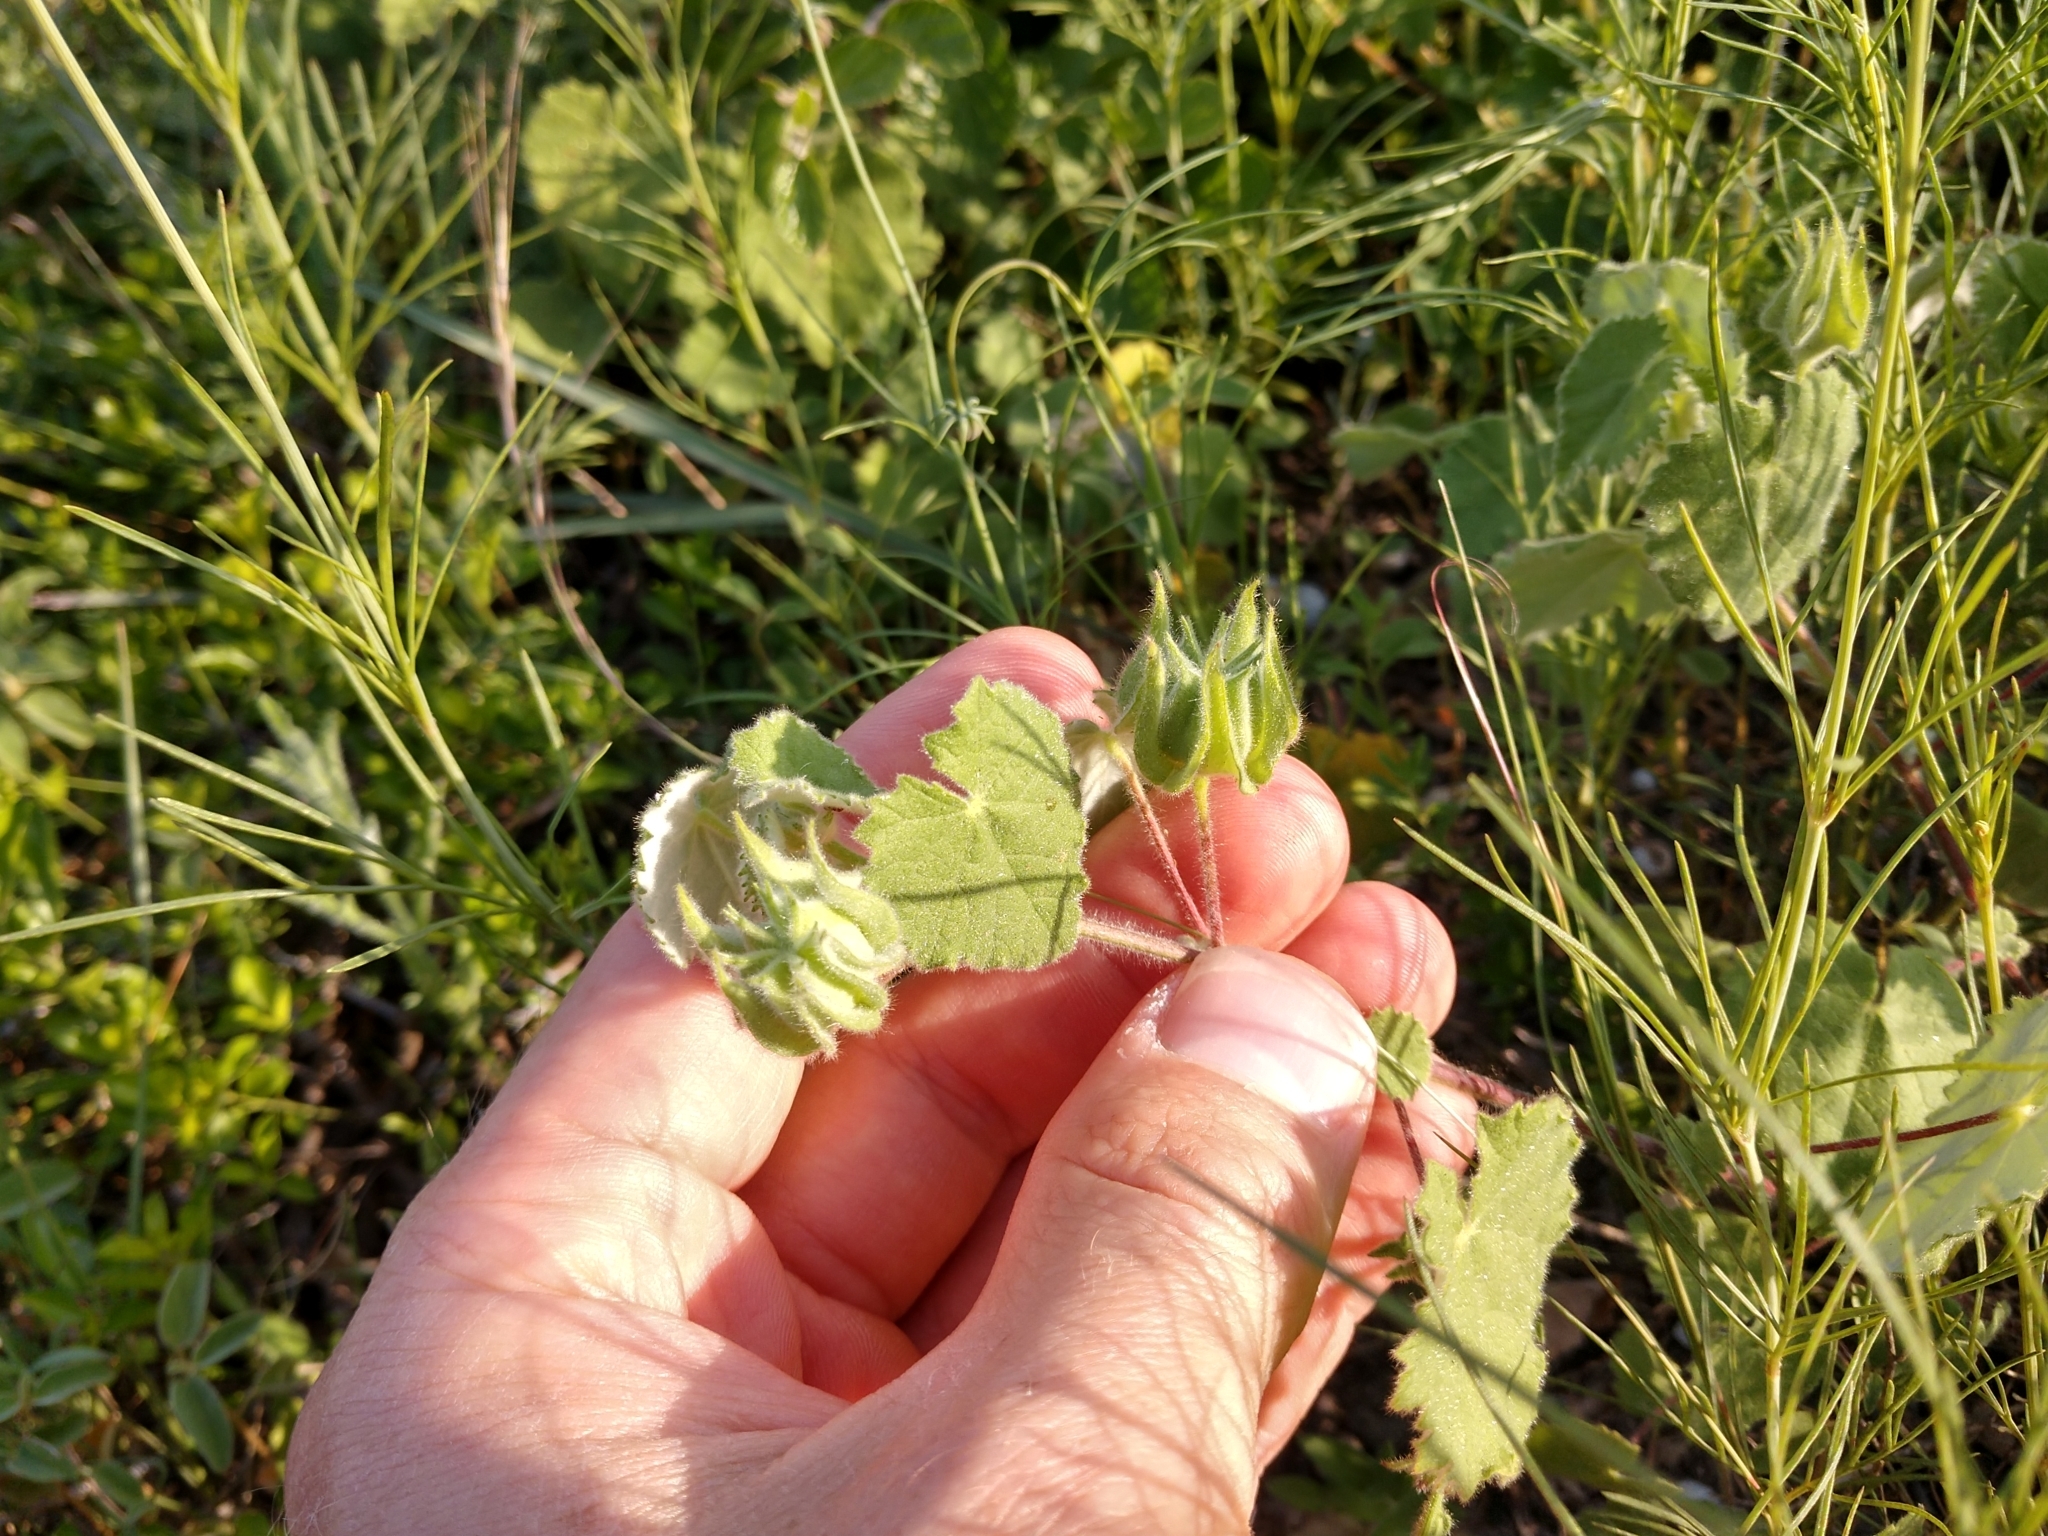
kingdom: Plantae
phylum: Tracheophyta
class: Magnoliopsida
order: Malvales
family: Malvaceae
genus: Abutilon
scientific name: Abutilon wrightii
